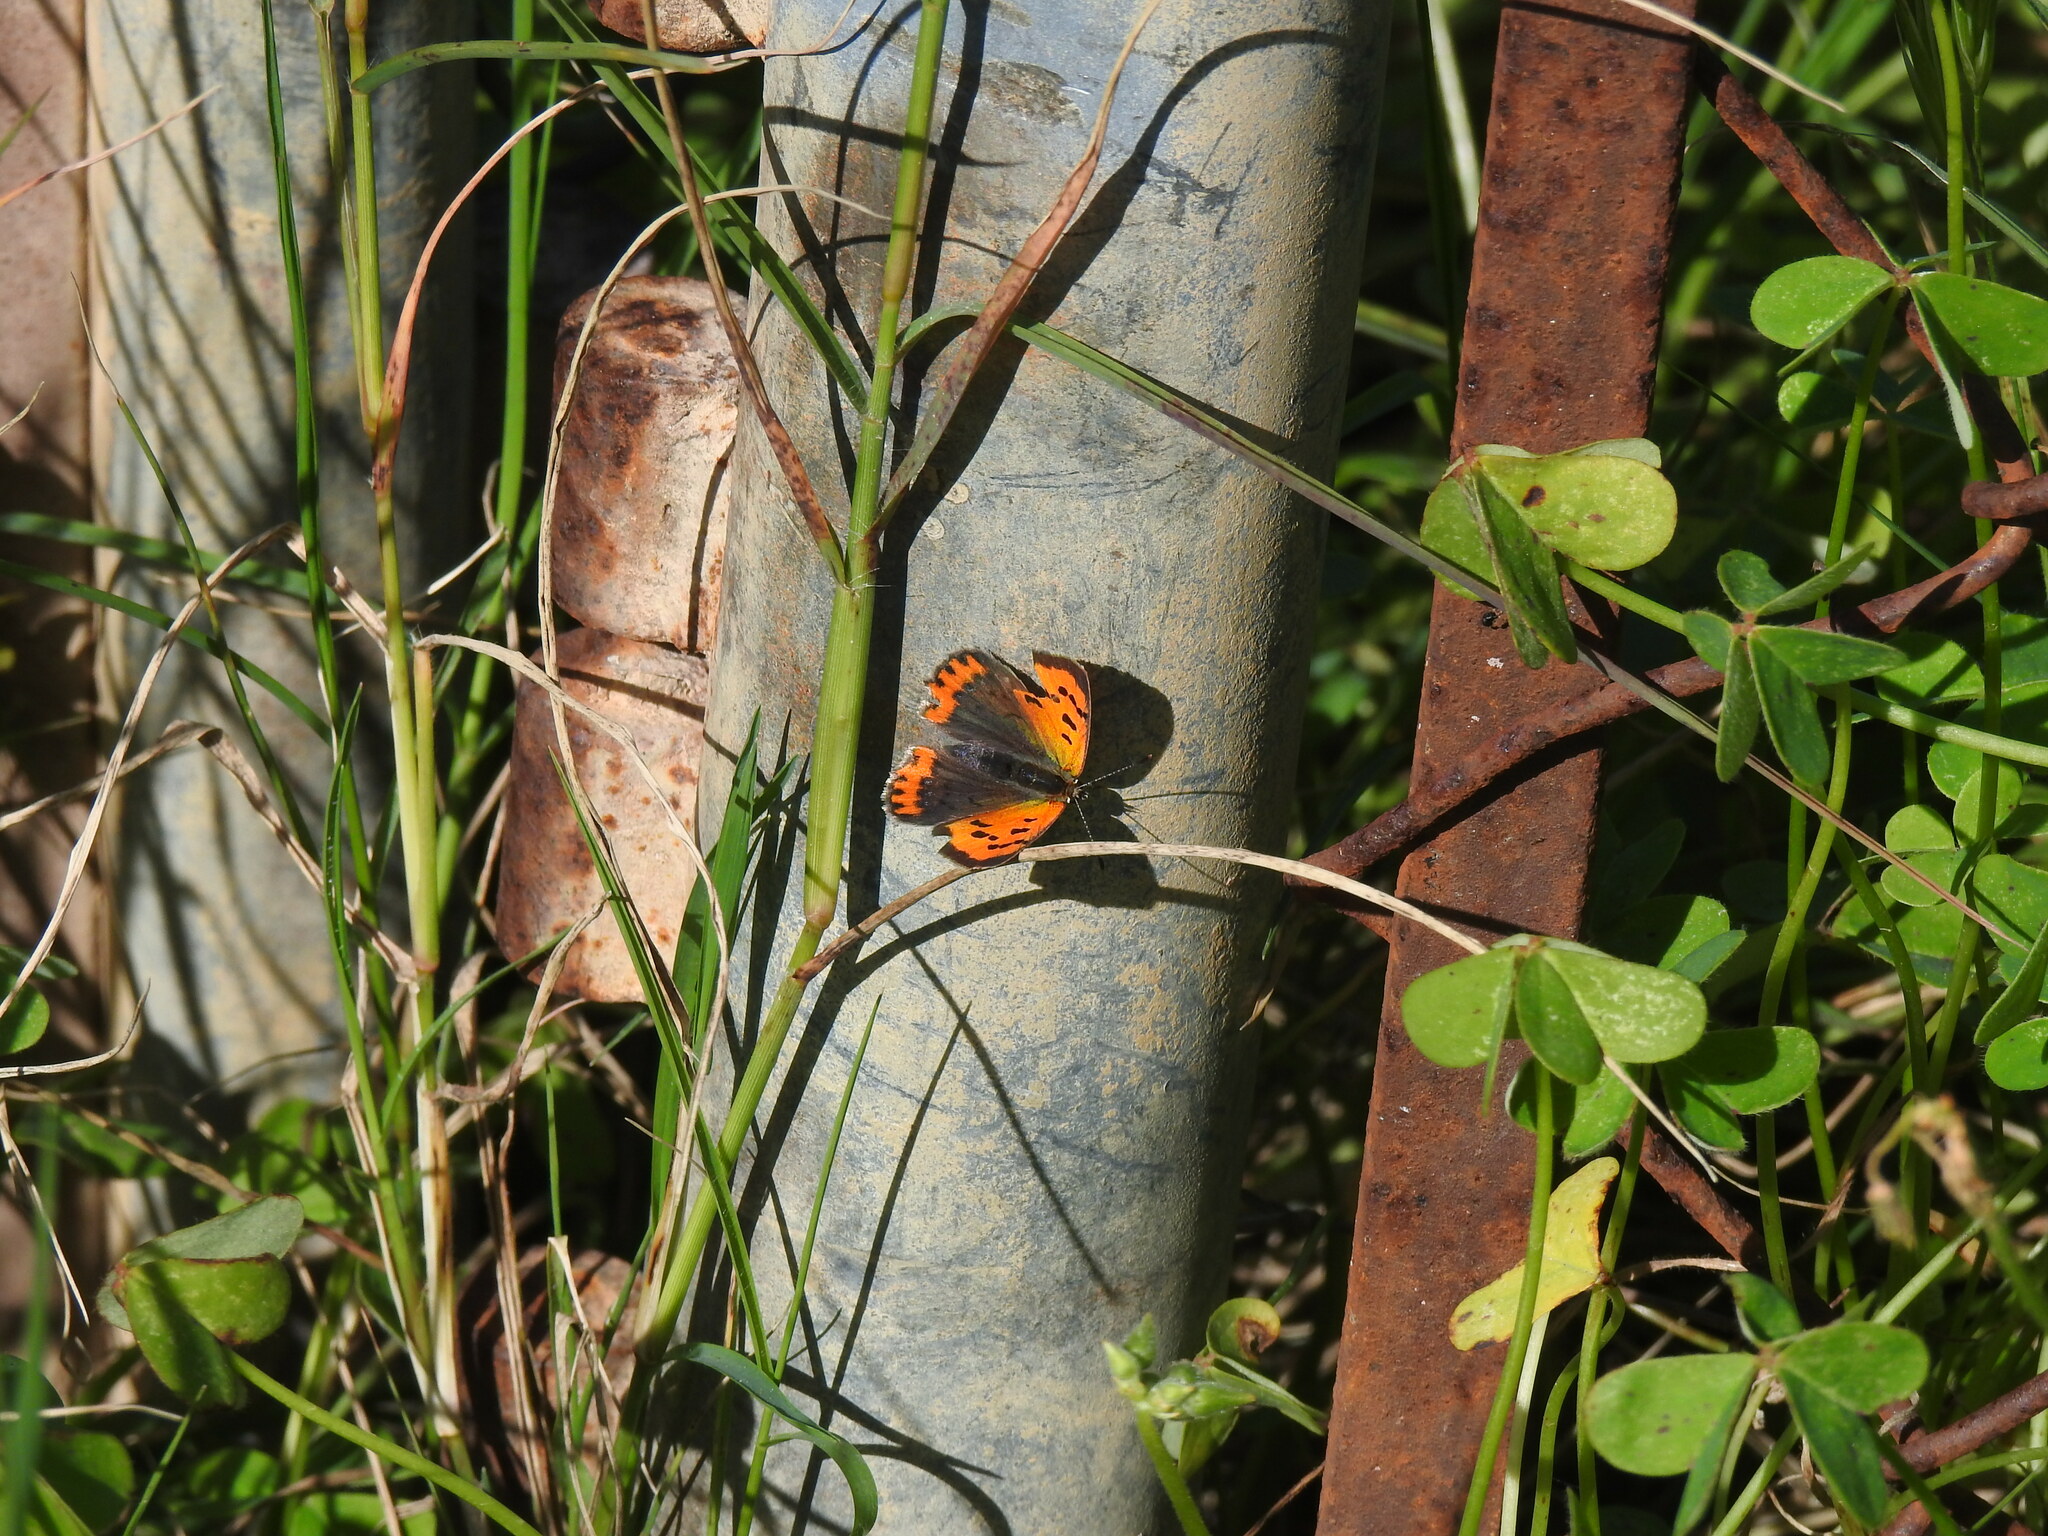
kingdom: Animalia
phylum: Arthropoda
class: Insecta
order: Lepidoptera
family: Lycaenidae
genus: Lycaena
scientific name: Lycaena phlaeas
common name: Small copper
